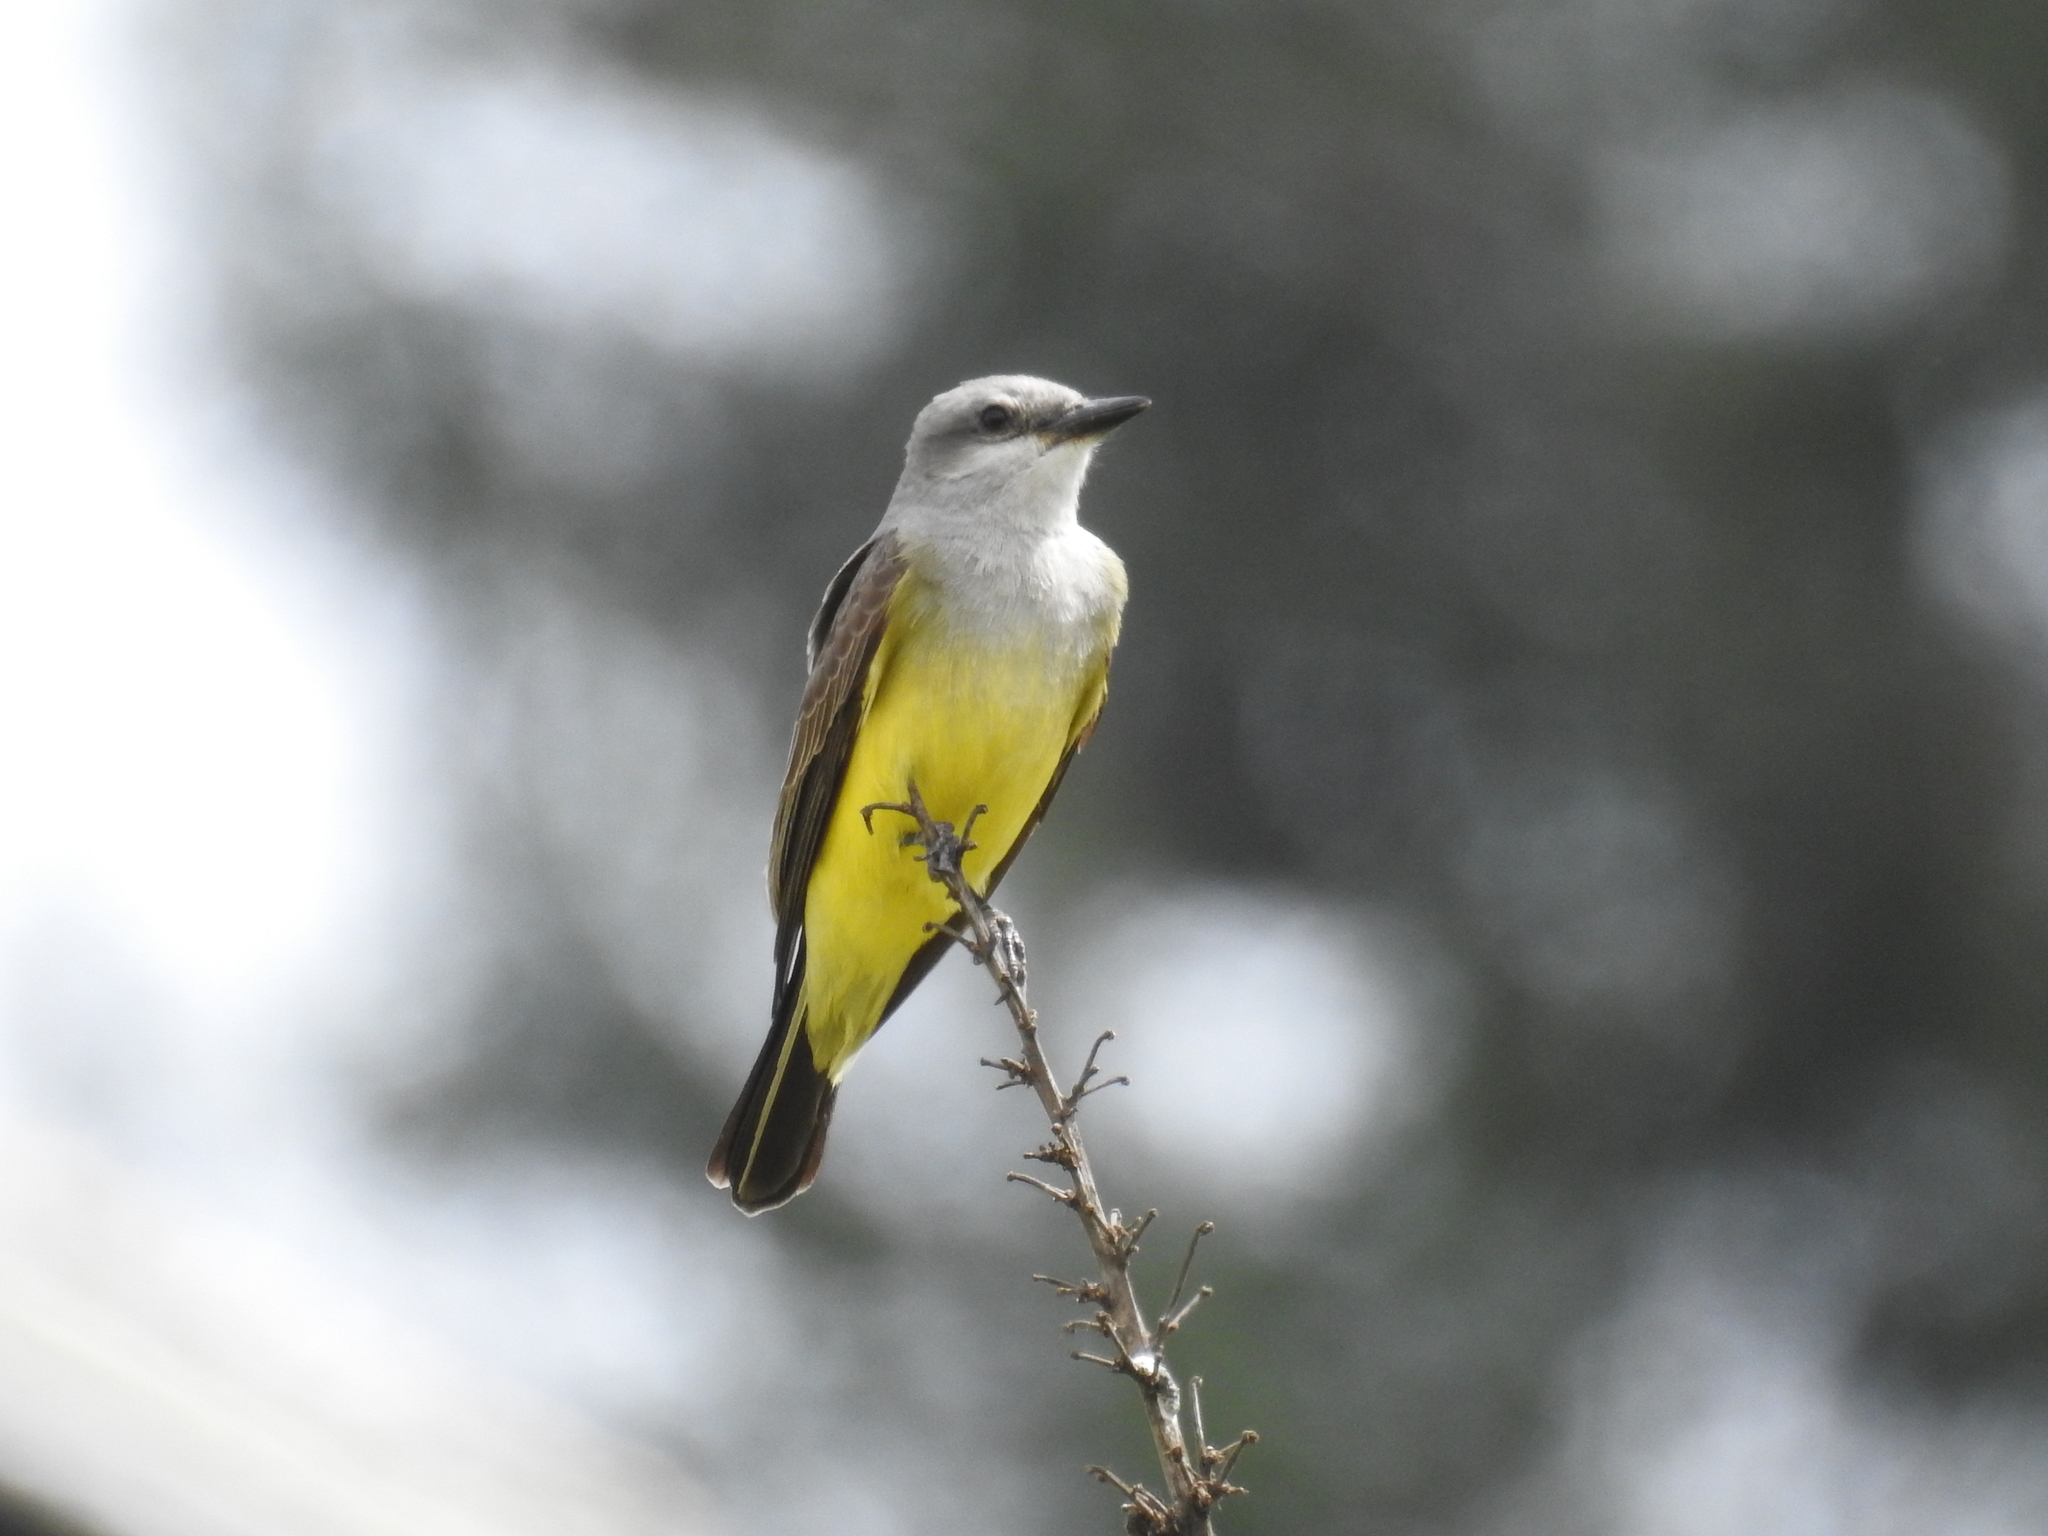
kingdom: Animalia
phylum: Chordata
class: Aves
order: Passeriformes
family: Tyrannidae
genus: Tyrannus
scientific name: Tyrannus verticalis
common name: Western kingbird
